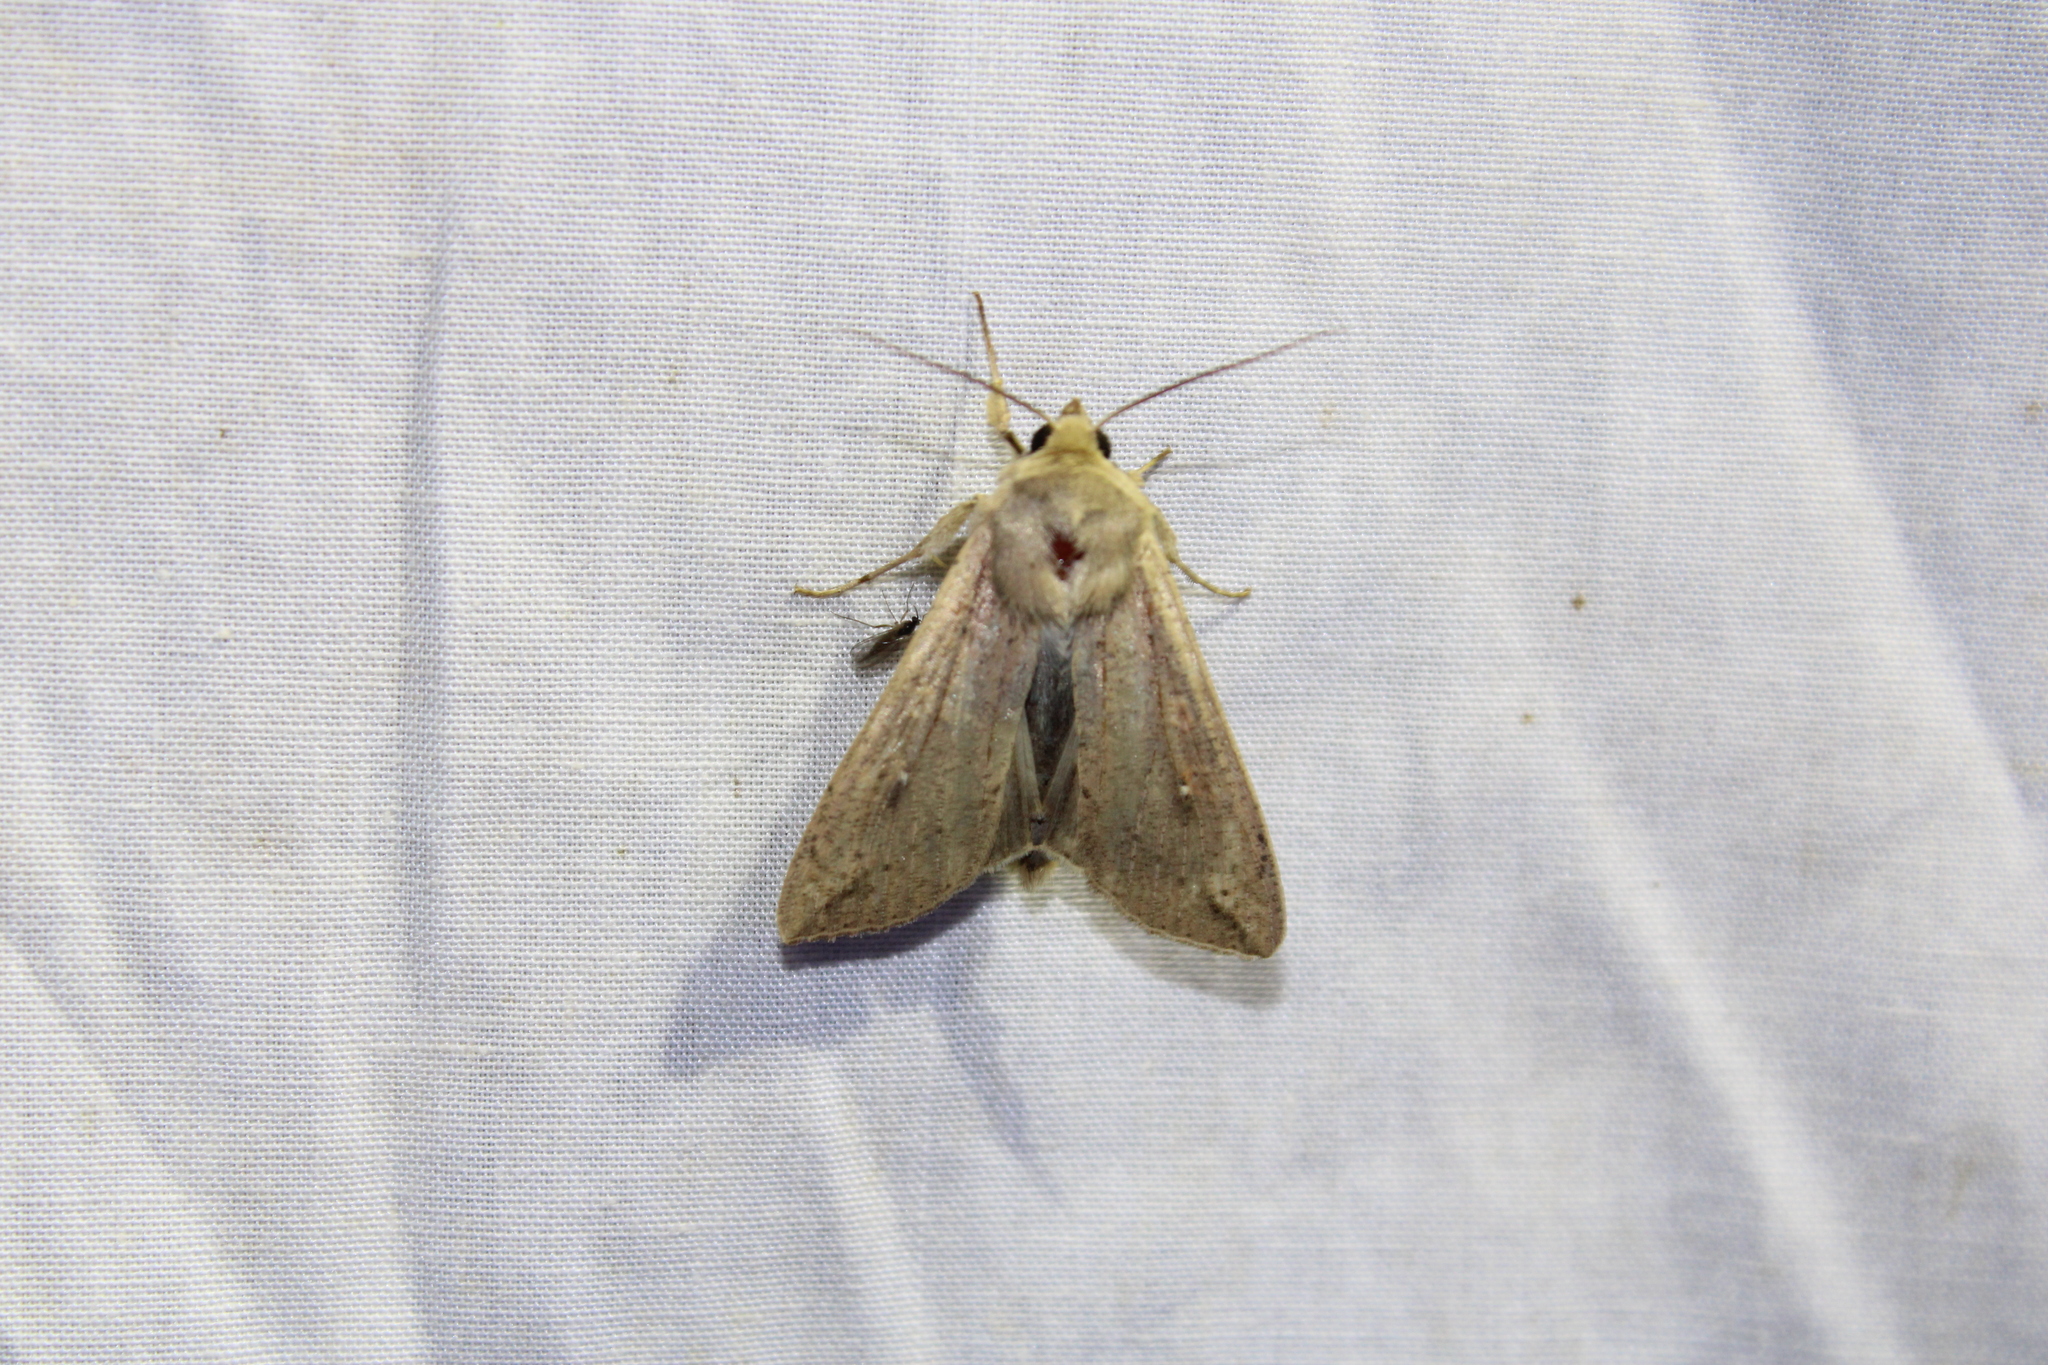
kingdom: Animalia
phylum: Arthropoda
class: Insecta
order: Lepidoptera
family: Noctuidae
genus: Mythimna
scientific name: Mythimna unipuncta
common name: White-speck
